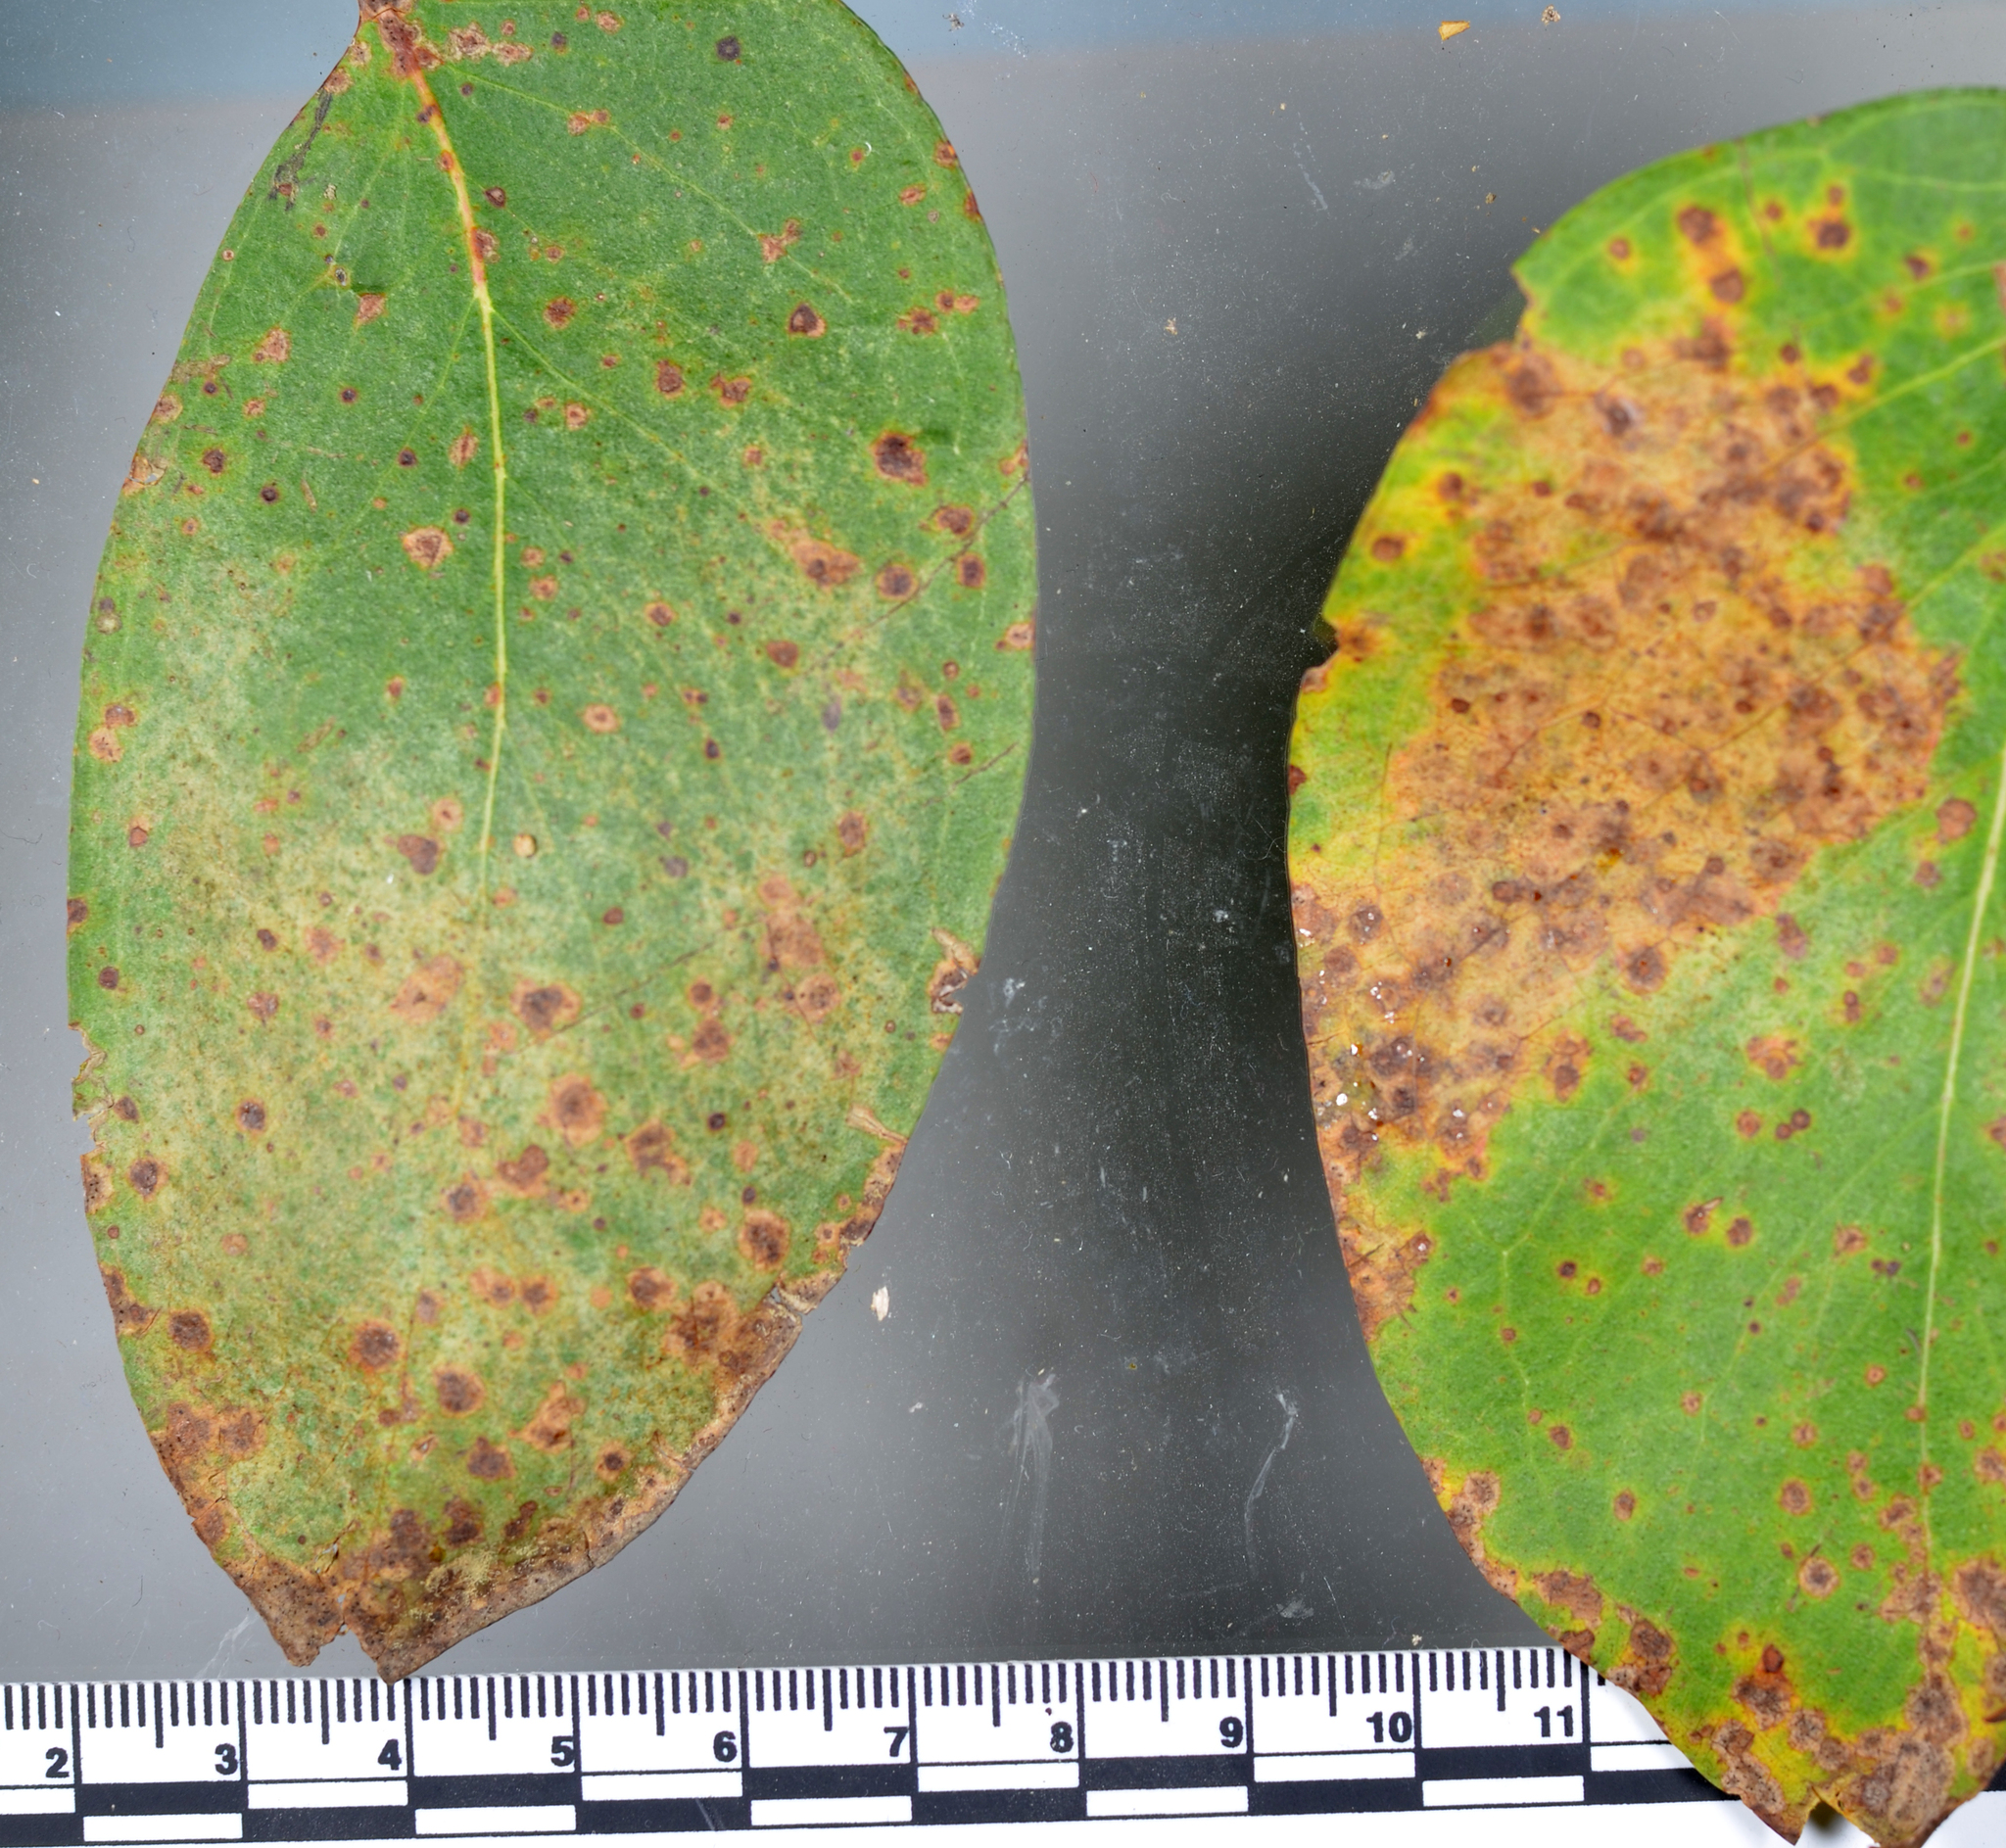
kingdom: Fungi
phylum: Ascomycota
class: Dothideomycetes
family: Thyrinulaceae
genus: Blastacervulus
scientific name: Blastacervulus eucalypti
